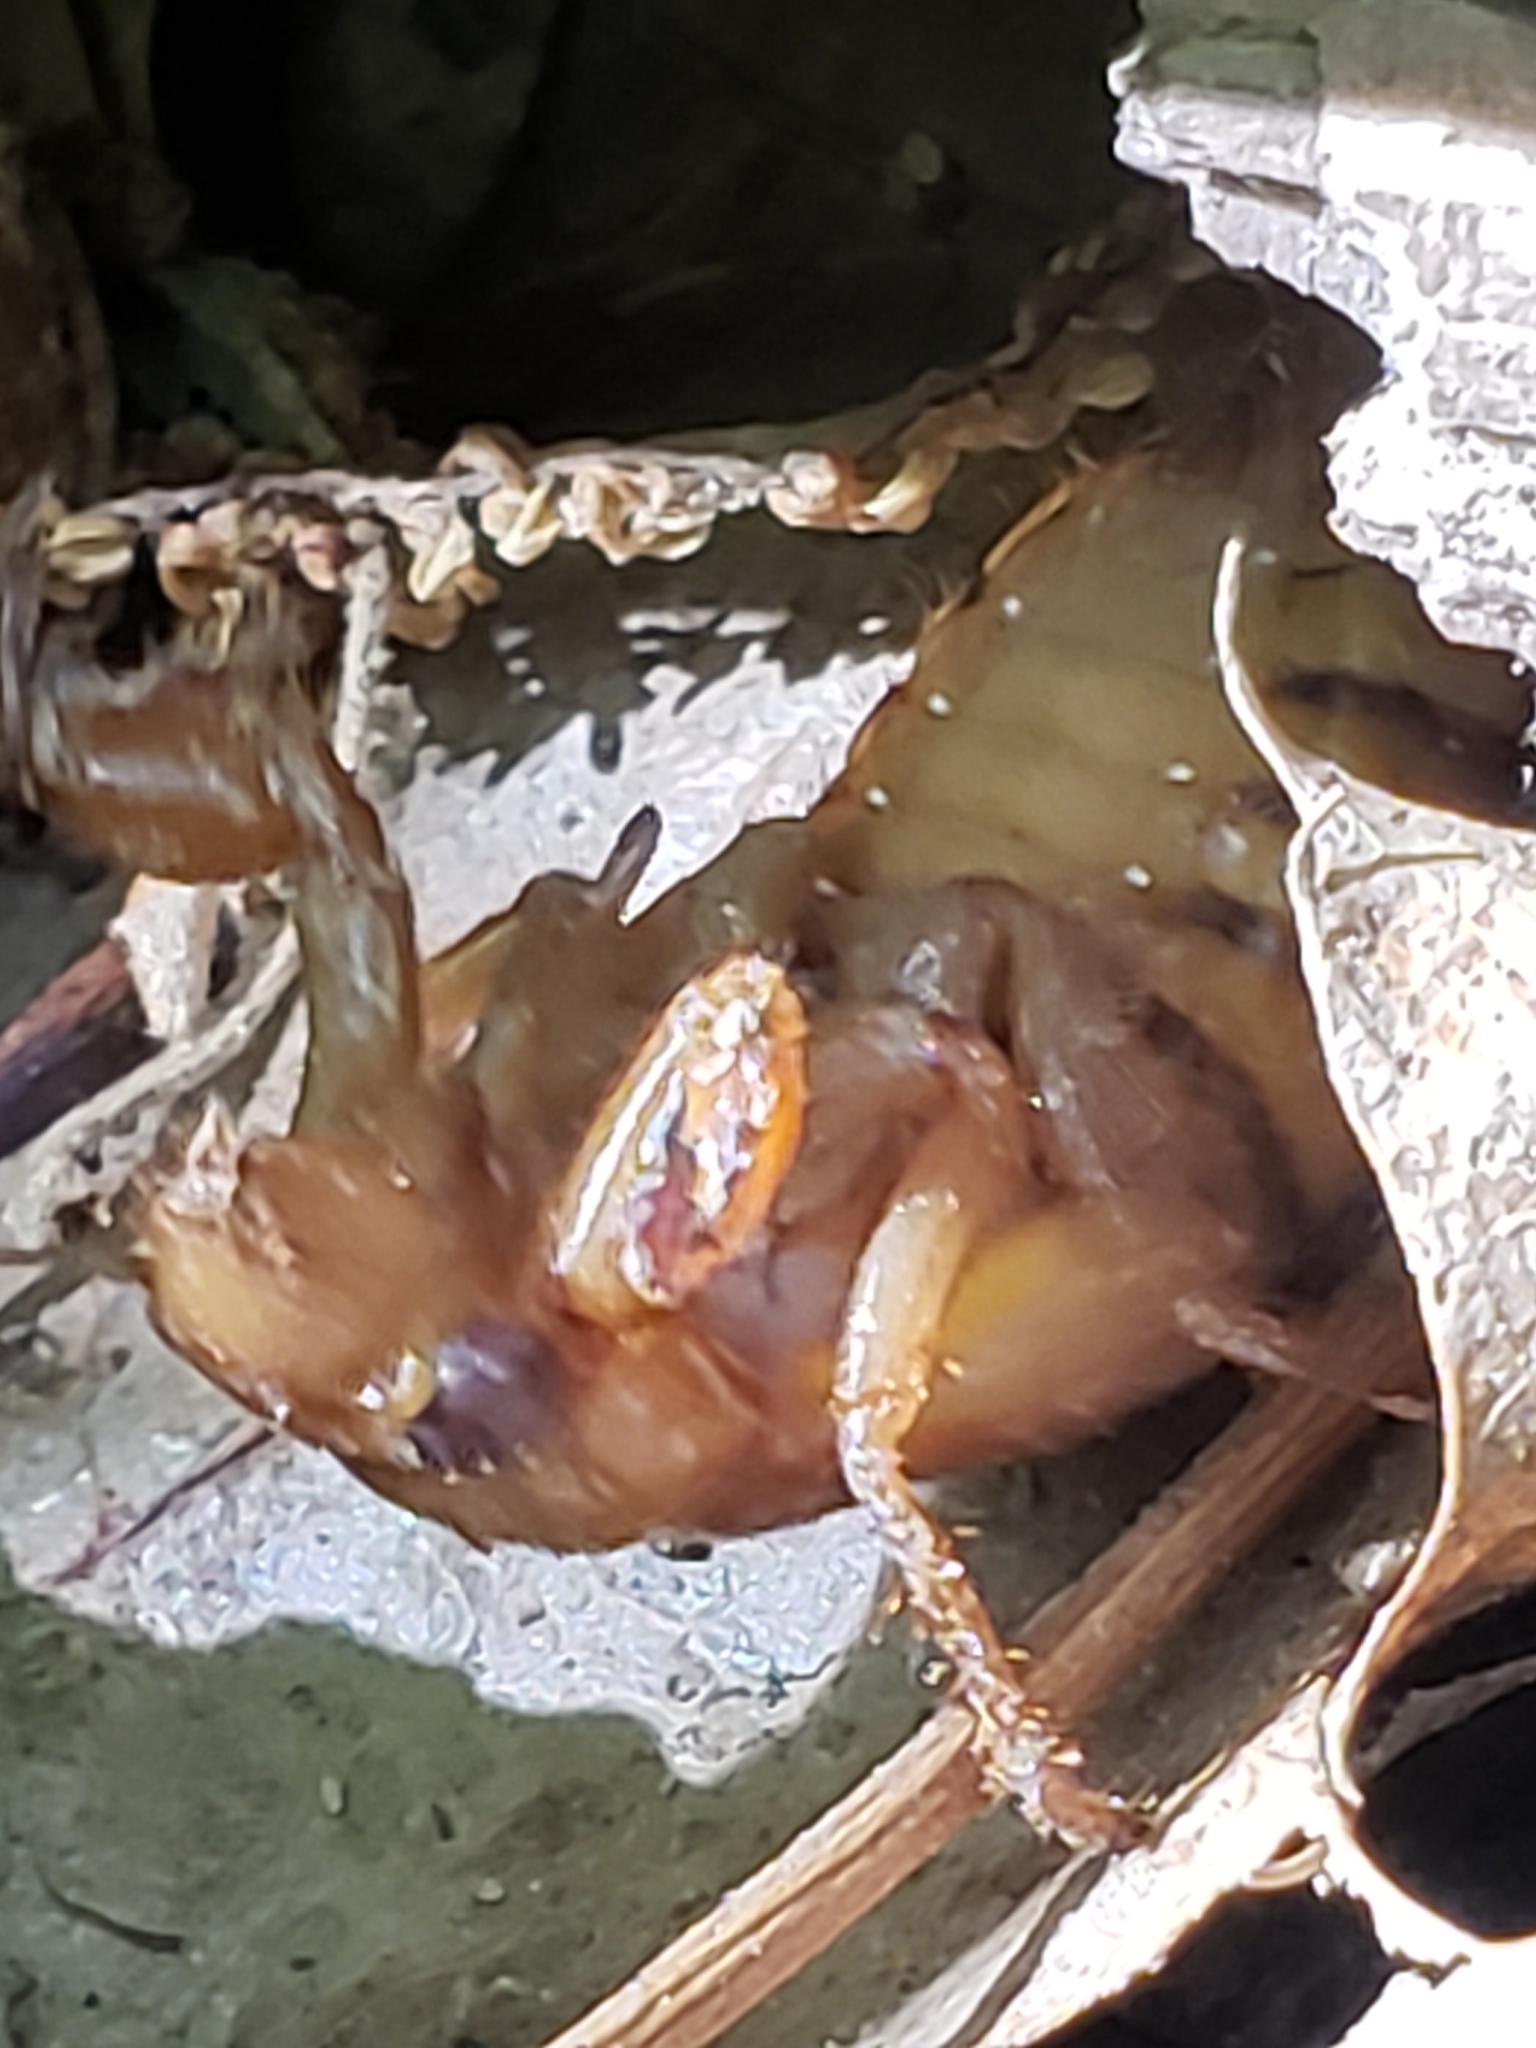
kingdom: Animalia
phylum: Arthropoda
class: Insecta
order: Hemiptera
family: Cicadidae
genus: Magicicada
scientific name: Magicicada
